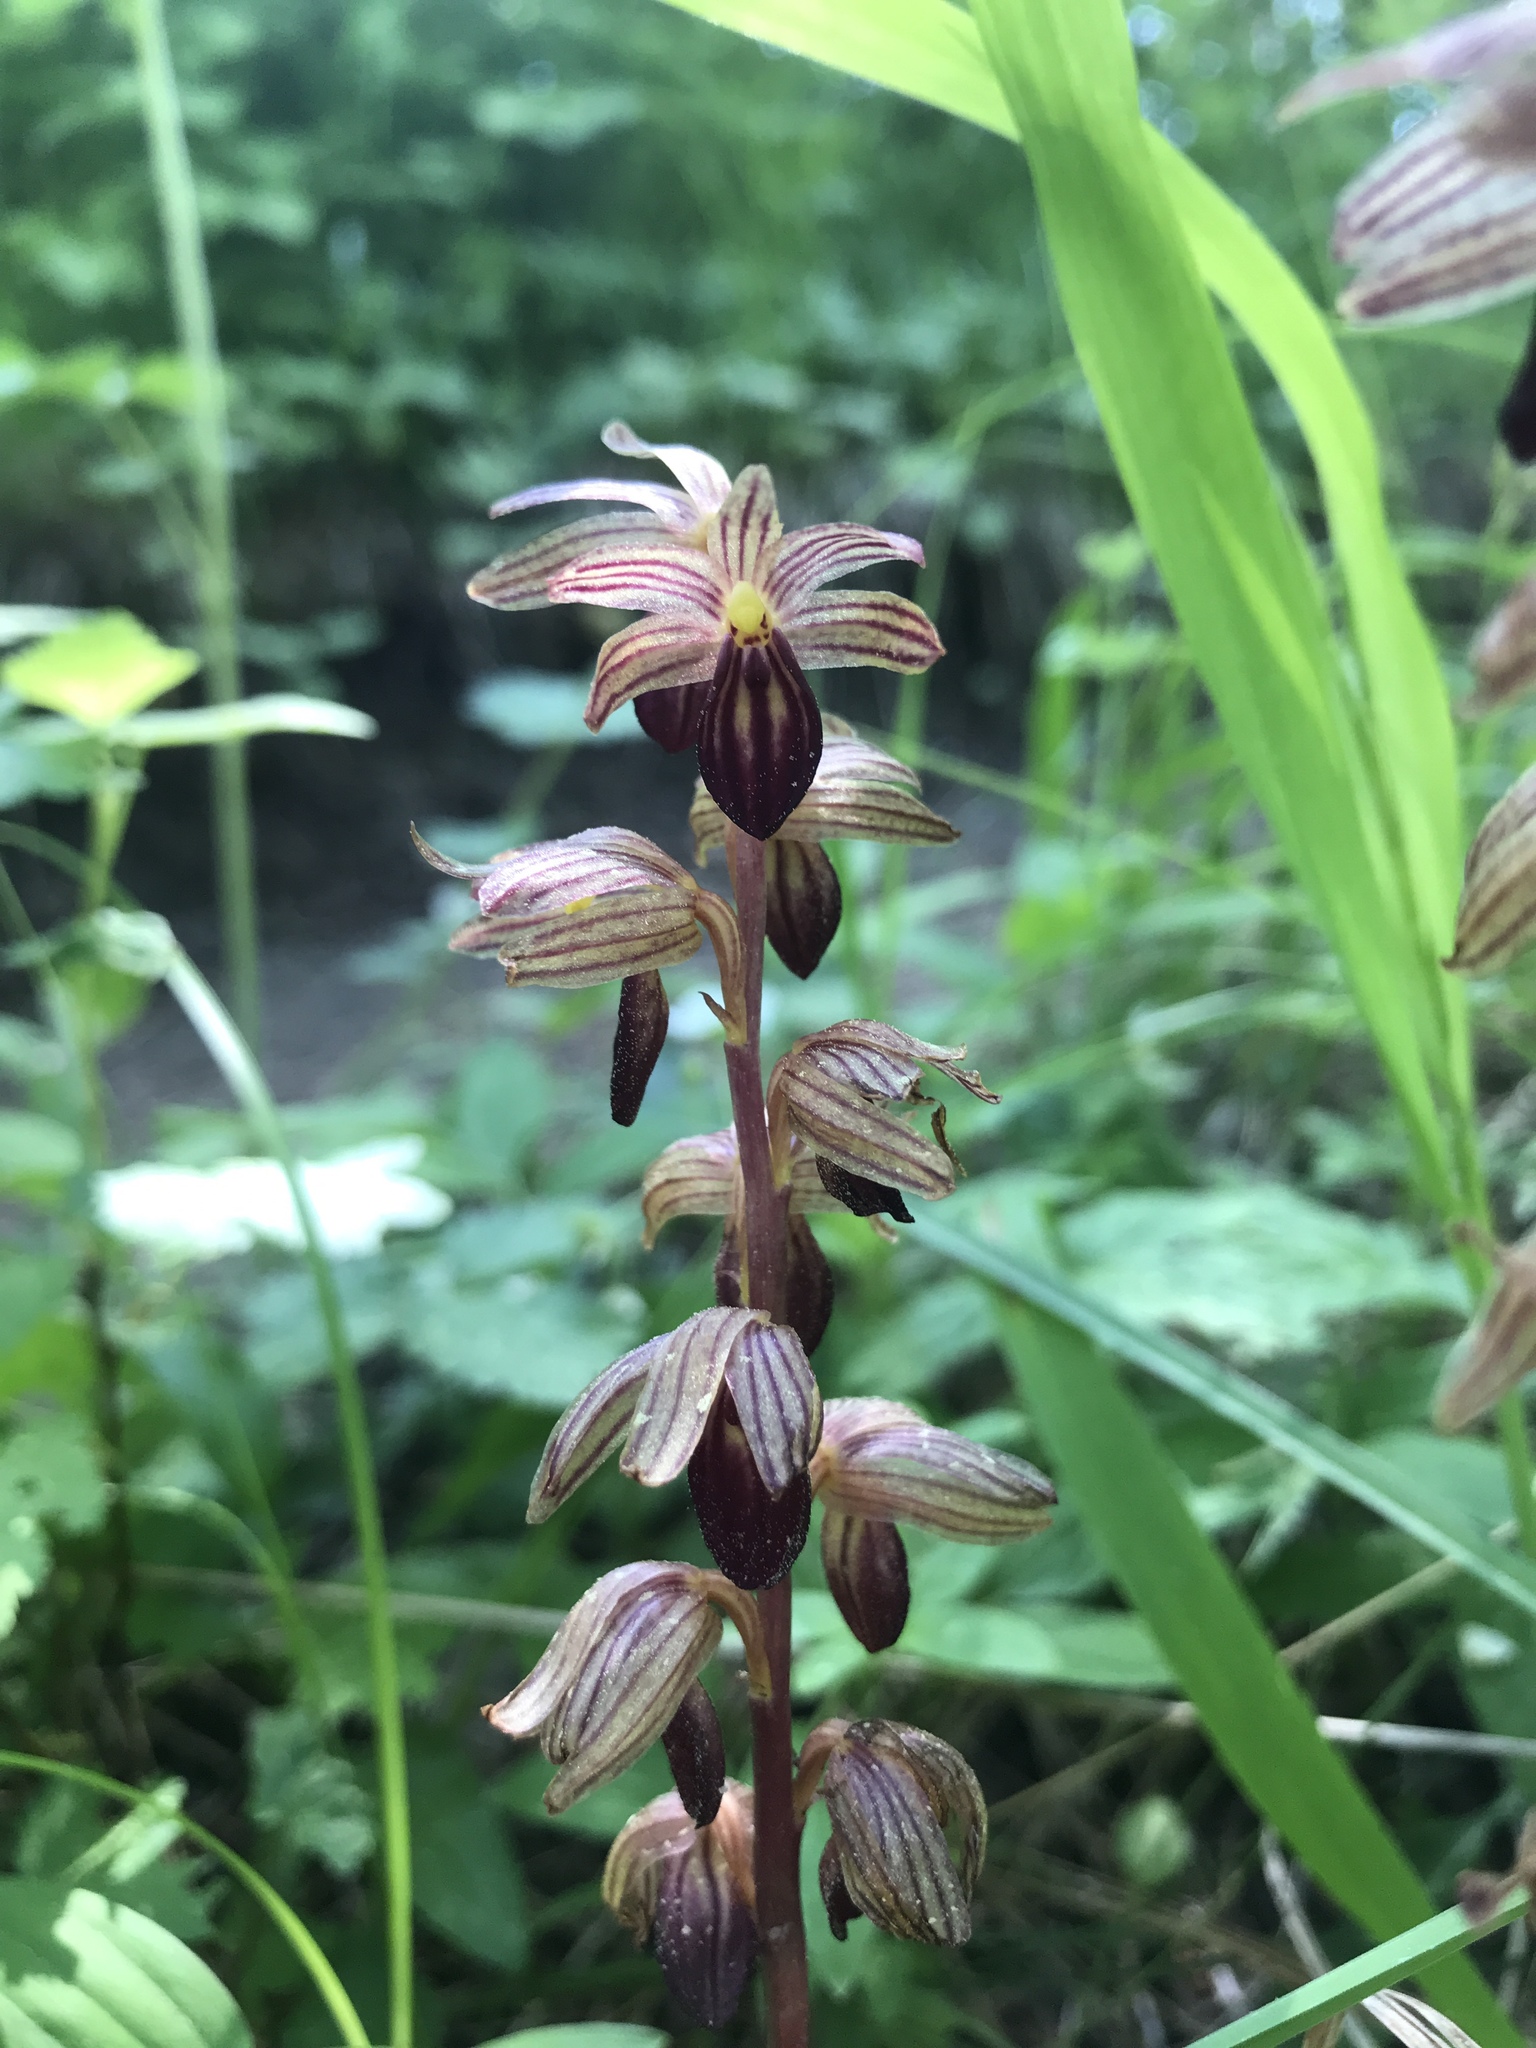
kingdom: Plantae
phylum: Tracheophyta
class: Liliopsida
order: Asparagales
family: Orchidaceae
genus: Corallorhiza
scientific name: Corallorhiza striata
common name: Hooded coralroot
